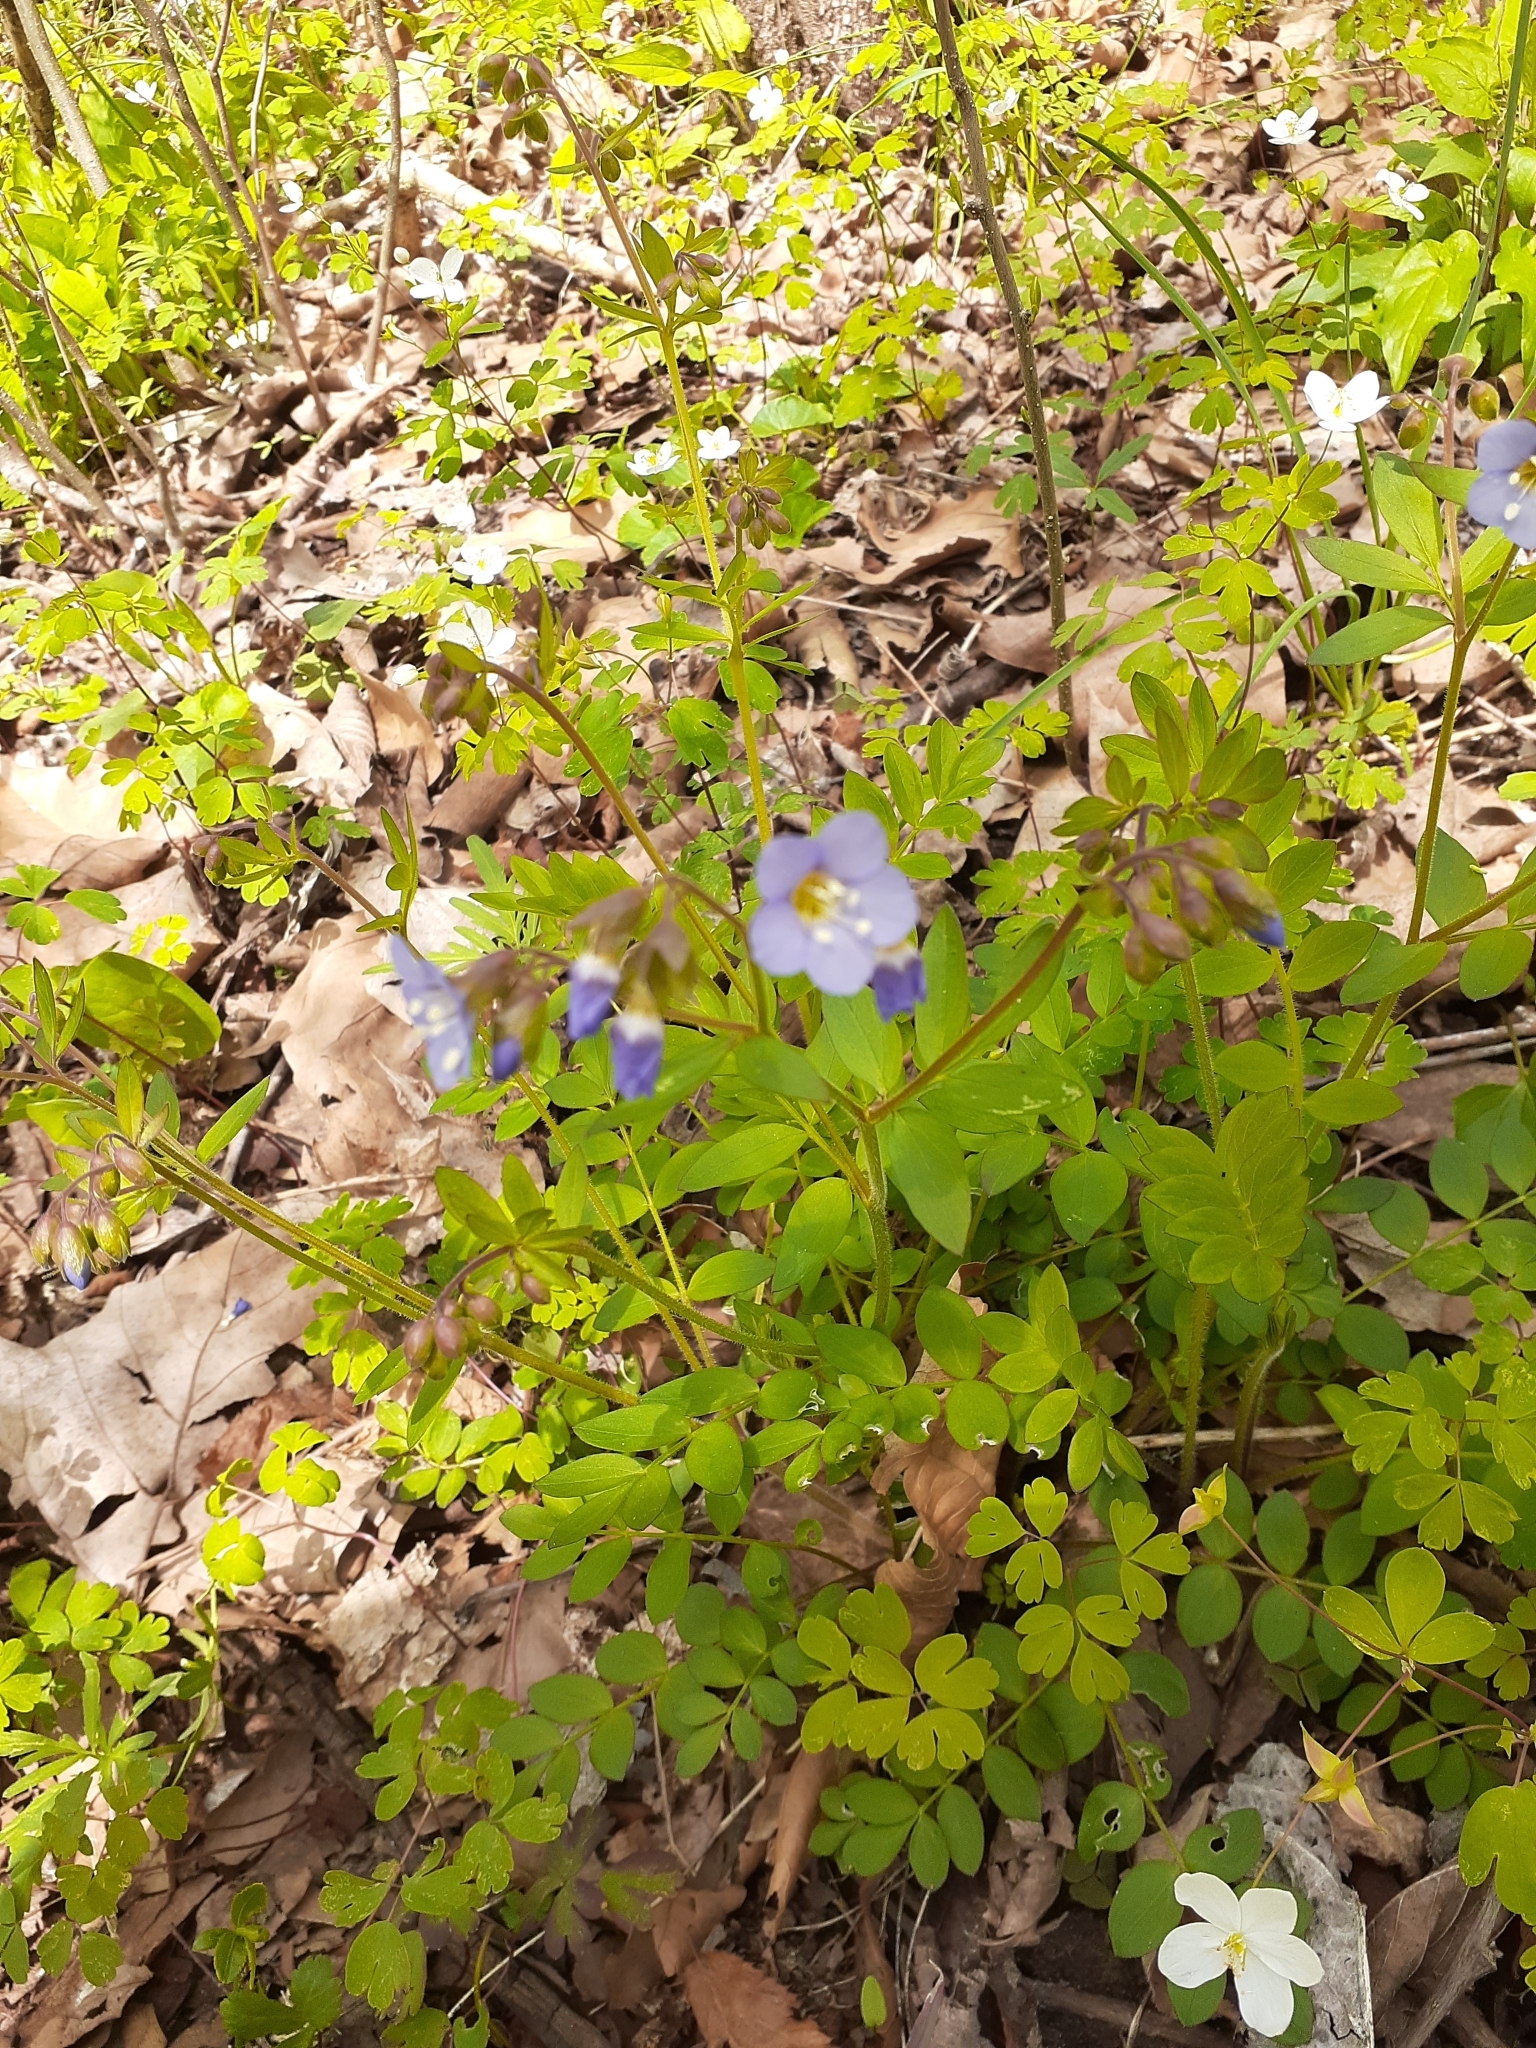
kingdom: Plantae
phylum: Tracheophyta
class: Magnoliopsida
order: Ericales
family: Polemoniaceae
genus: Polemonium
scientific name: Polemonium reptans
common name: Creeping jacob's-ladder
